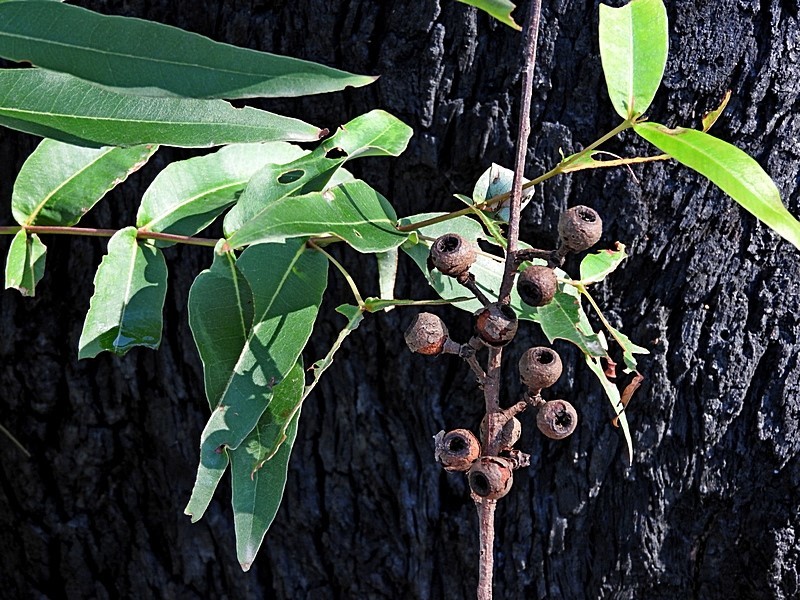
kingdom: Plantae
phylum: Tracheophyta
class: Magnoliopsida
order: Myrtales
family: Myrtaceae
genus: Eucalyptus
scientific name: Eucalyptus pilularis
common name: Blackbutt
